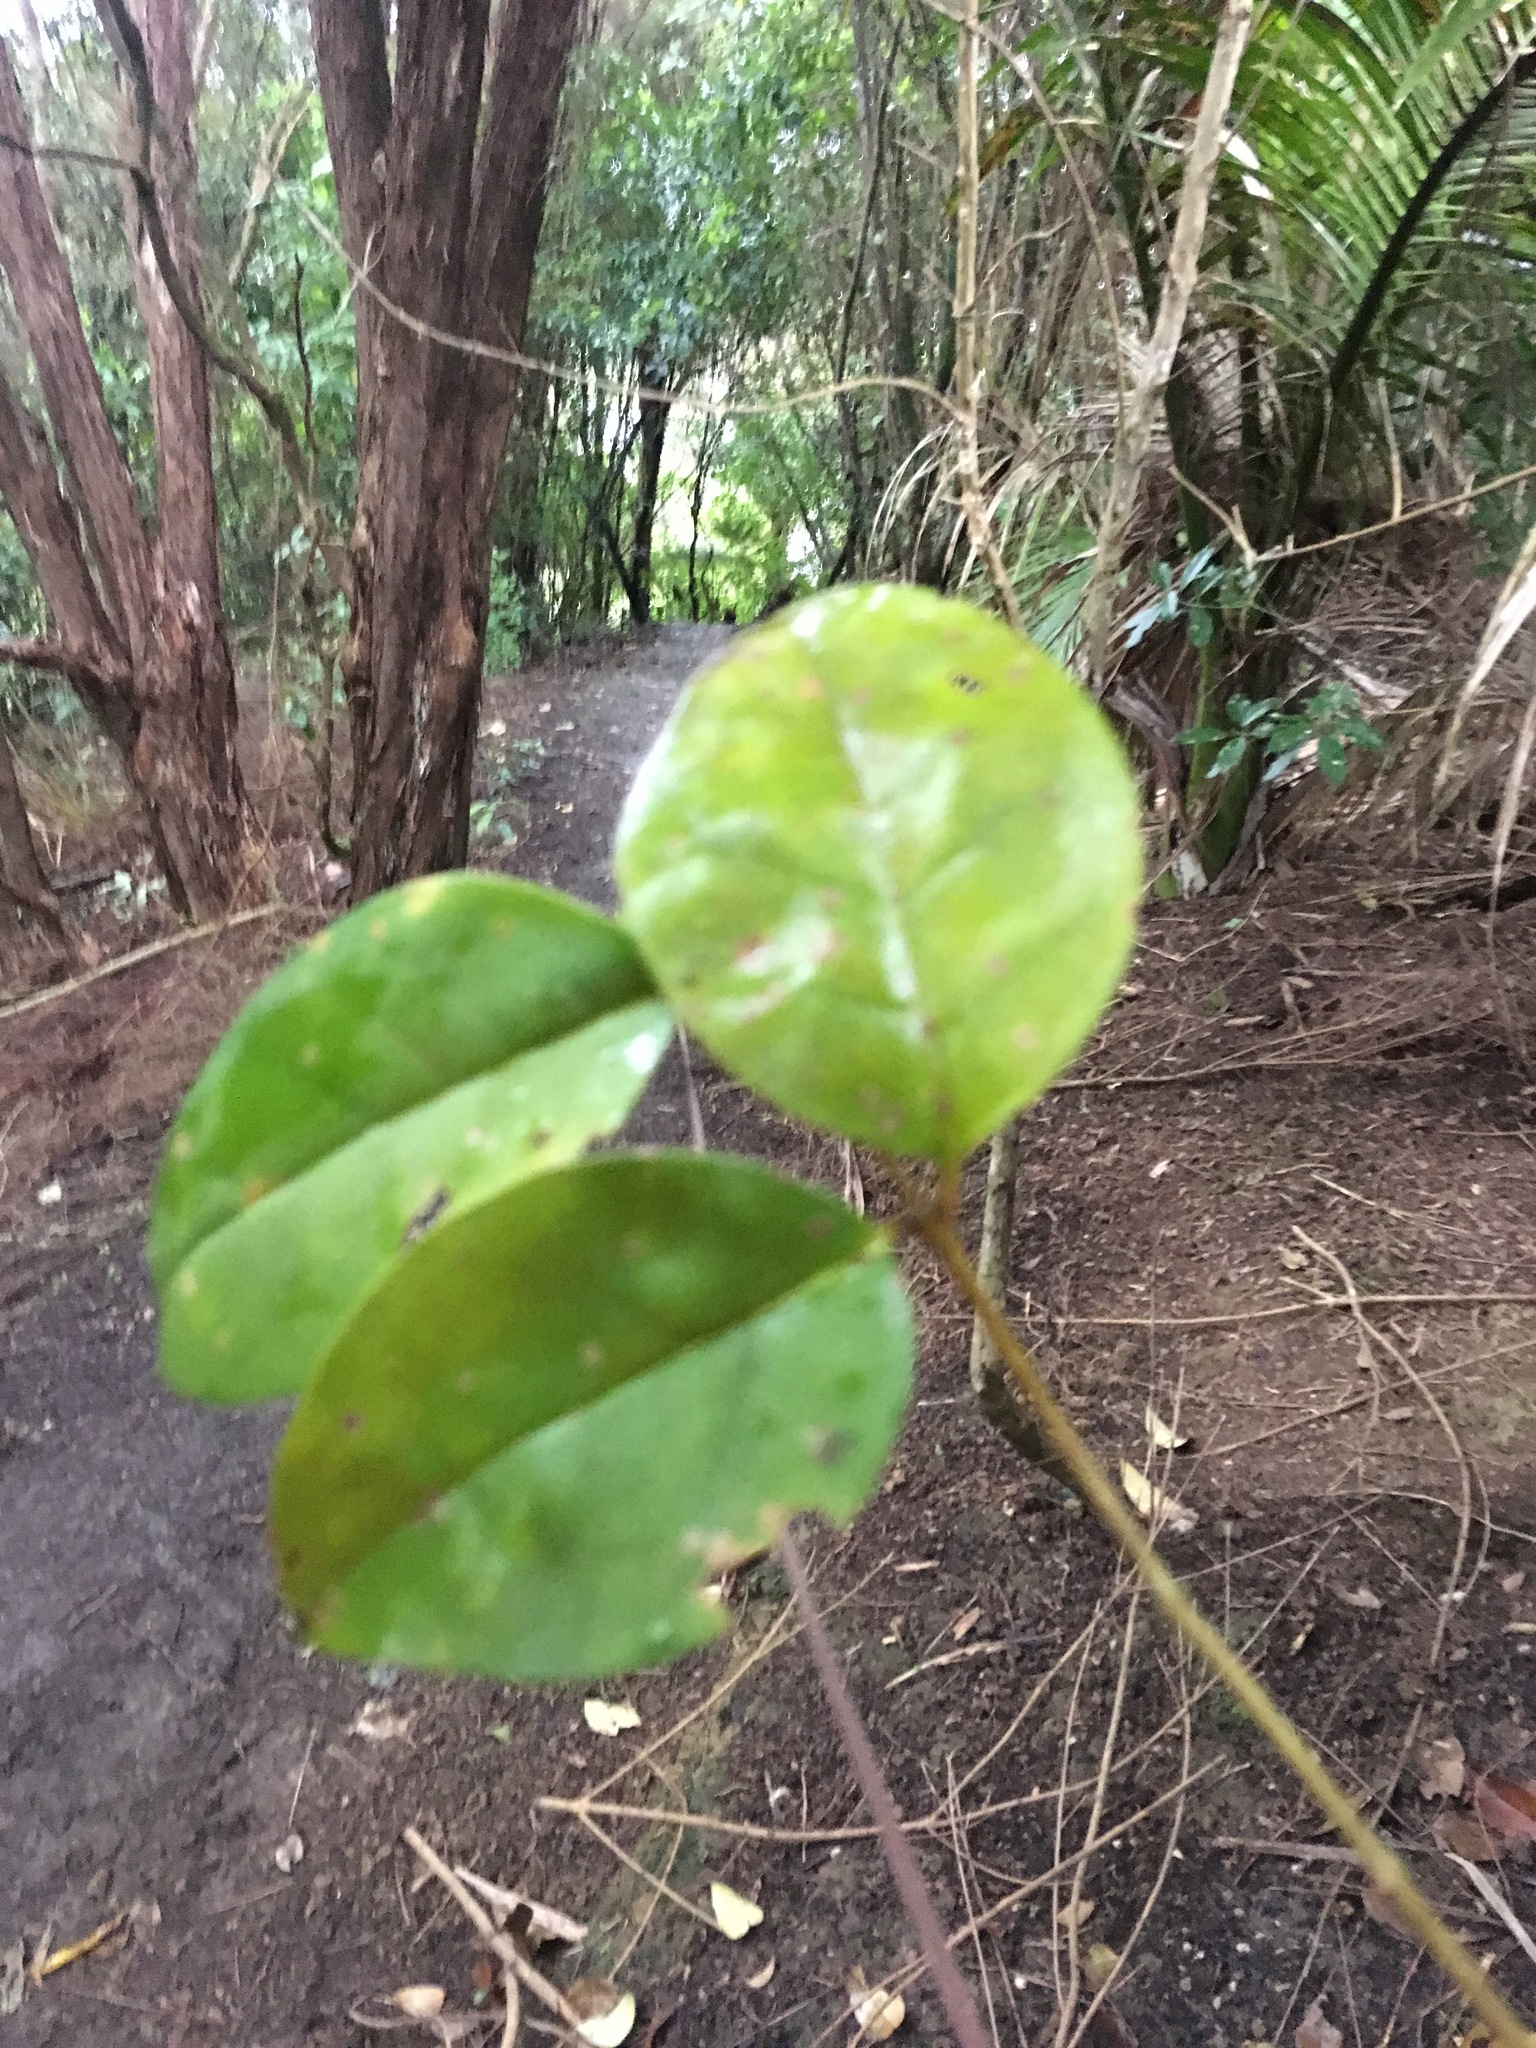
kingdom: Plantae
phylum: Tracheophyta
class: Magnoliopsida
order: Lamiales
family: Oleaceae
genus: Ligustrum
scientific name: Ligustrum lucidum
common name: Glossy privet
